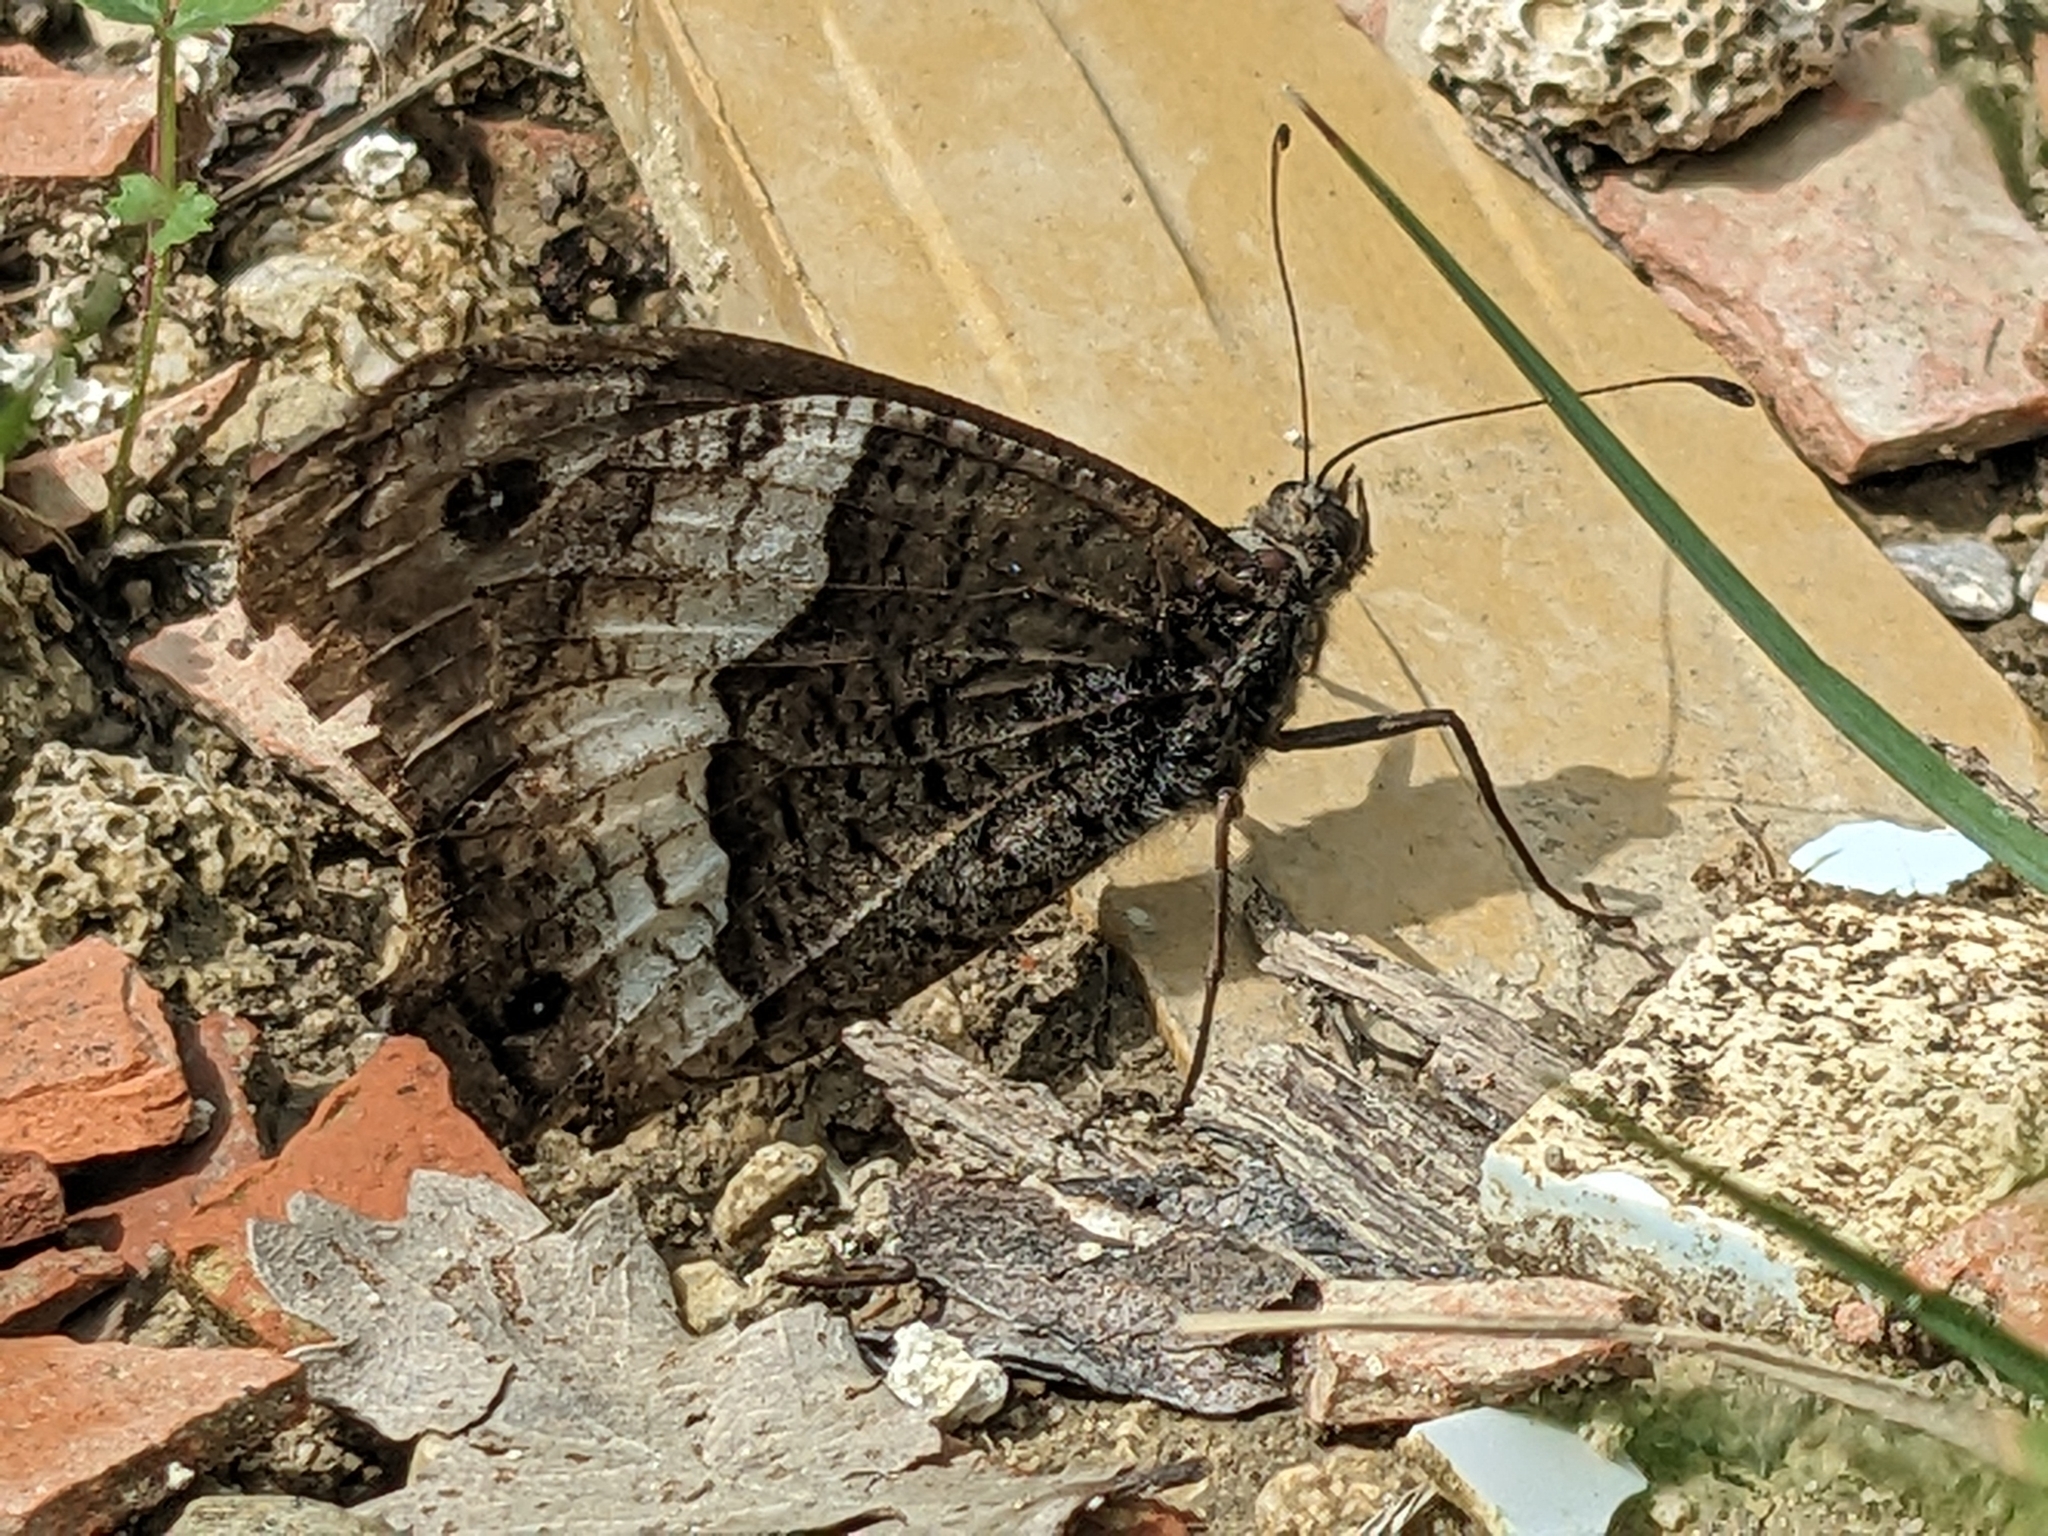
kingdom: Animalia
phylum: Arthropoda
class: Insecta
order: Lepidoptera
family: Nymphalidae
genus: Hipparchia
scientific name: Hipparchia fagi
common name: Woodland grayling
